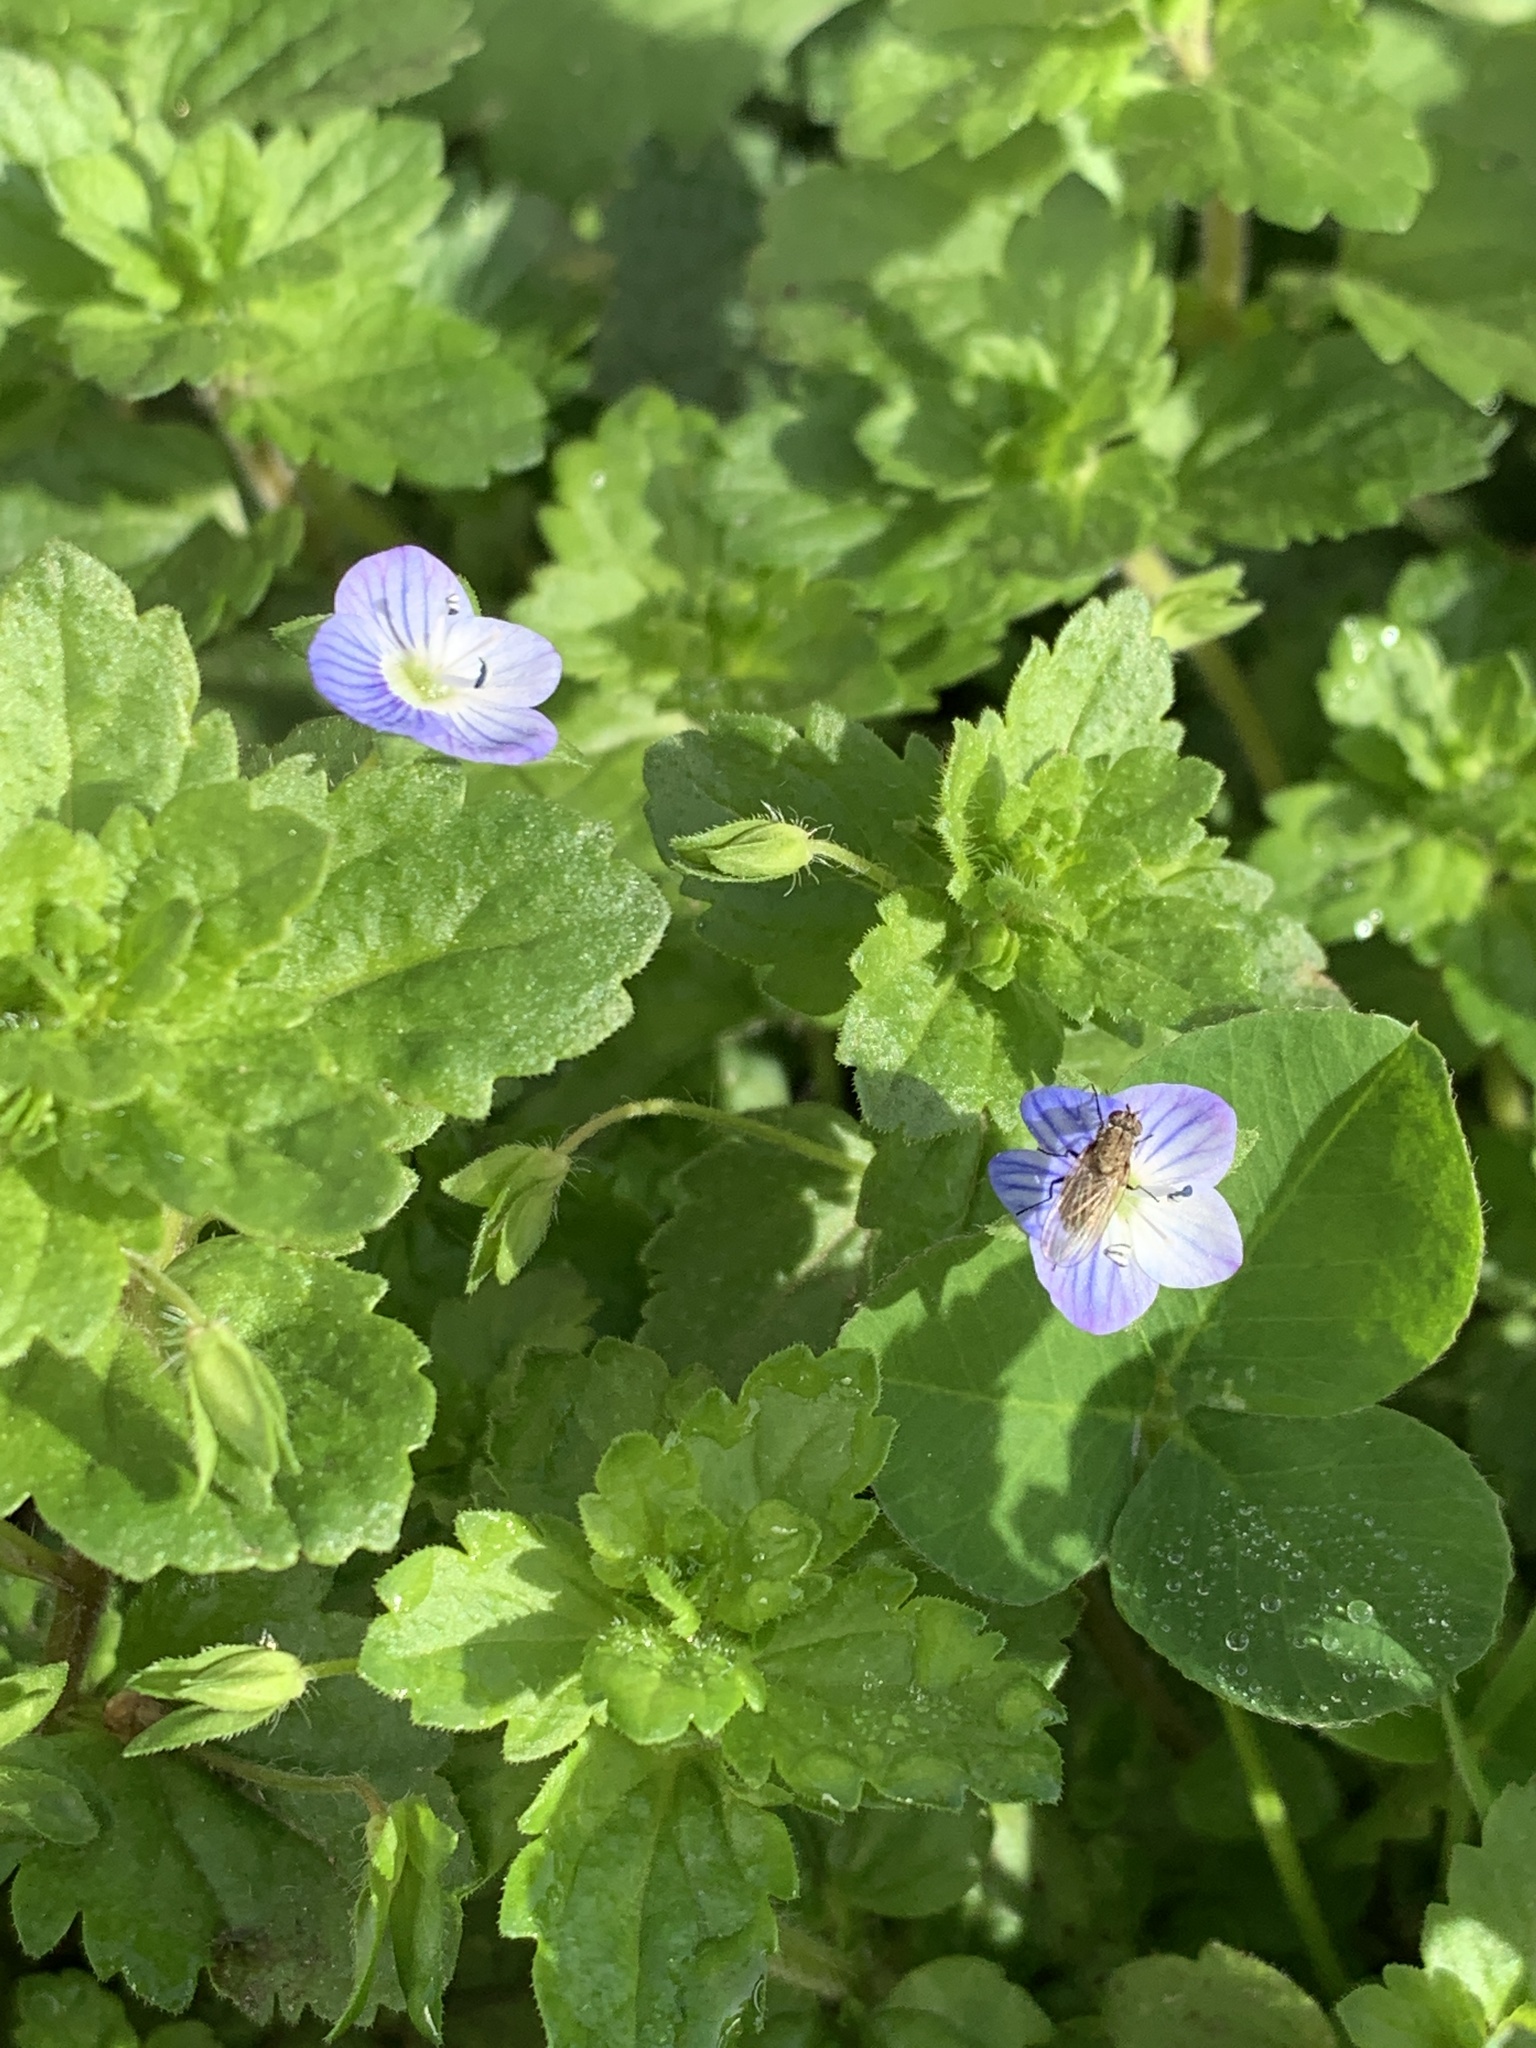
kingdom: Plantae
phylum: Tracheophyta
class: Magnoliopsida
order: Lamiales
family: Plantaginaceae
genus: Veronica
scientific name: Veronica persica
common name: Common field-speedwell
